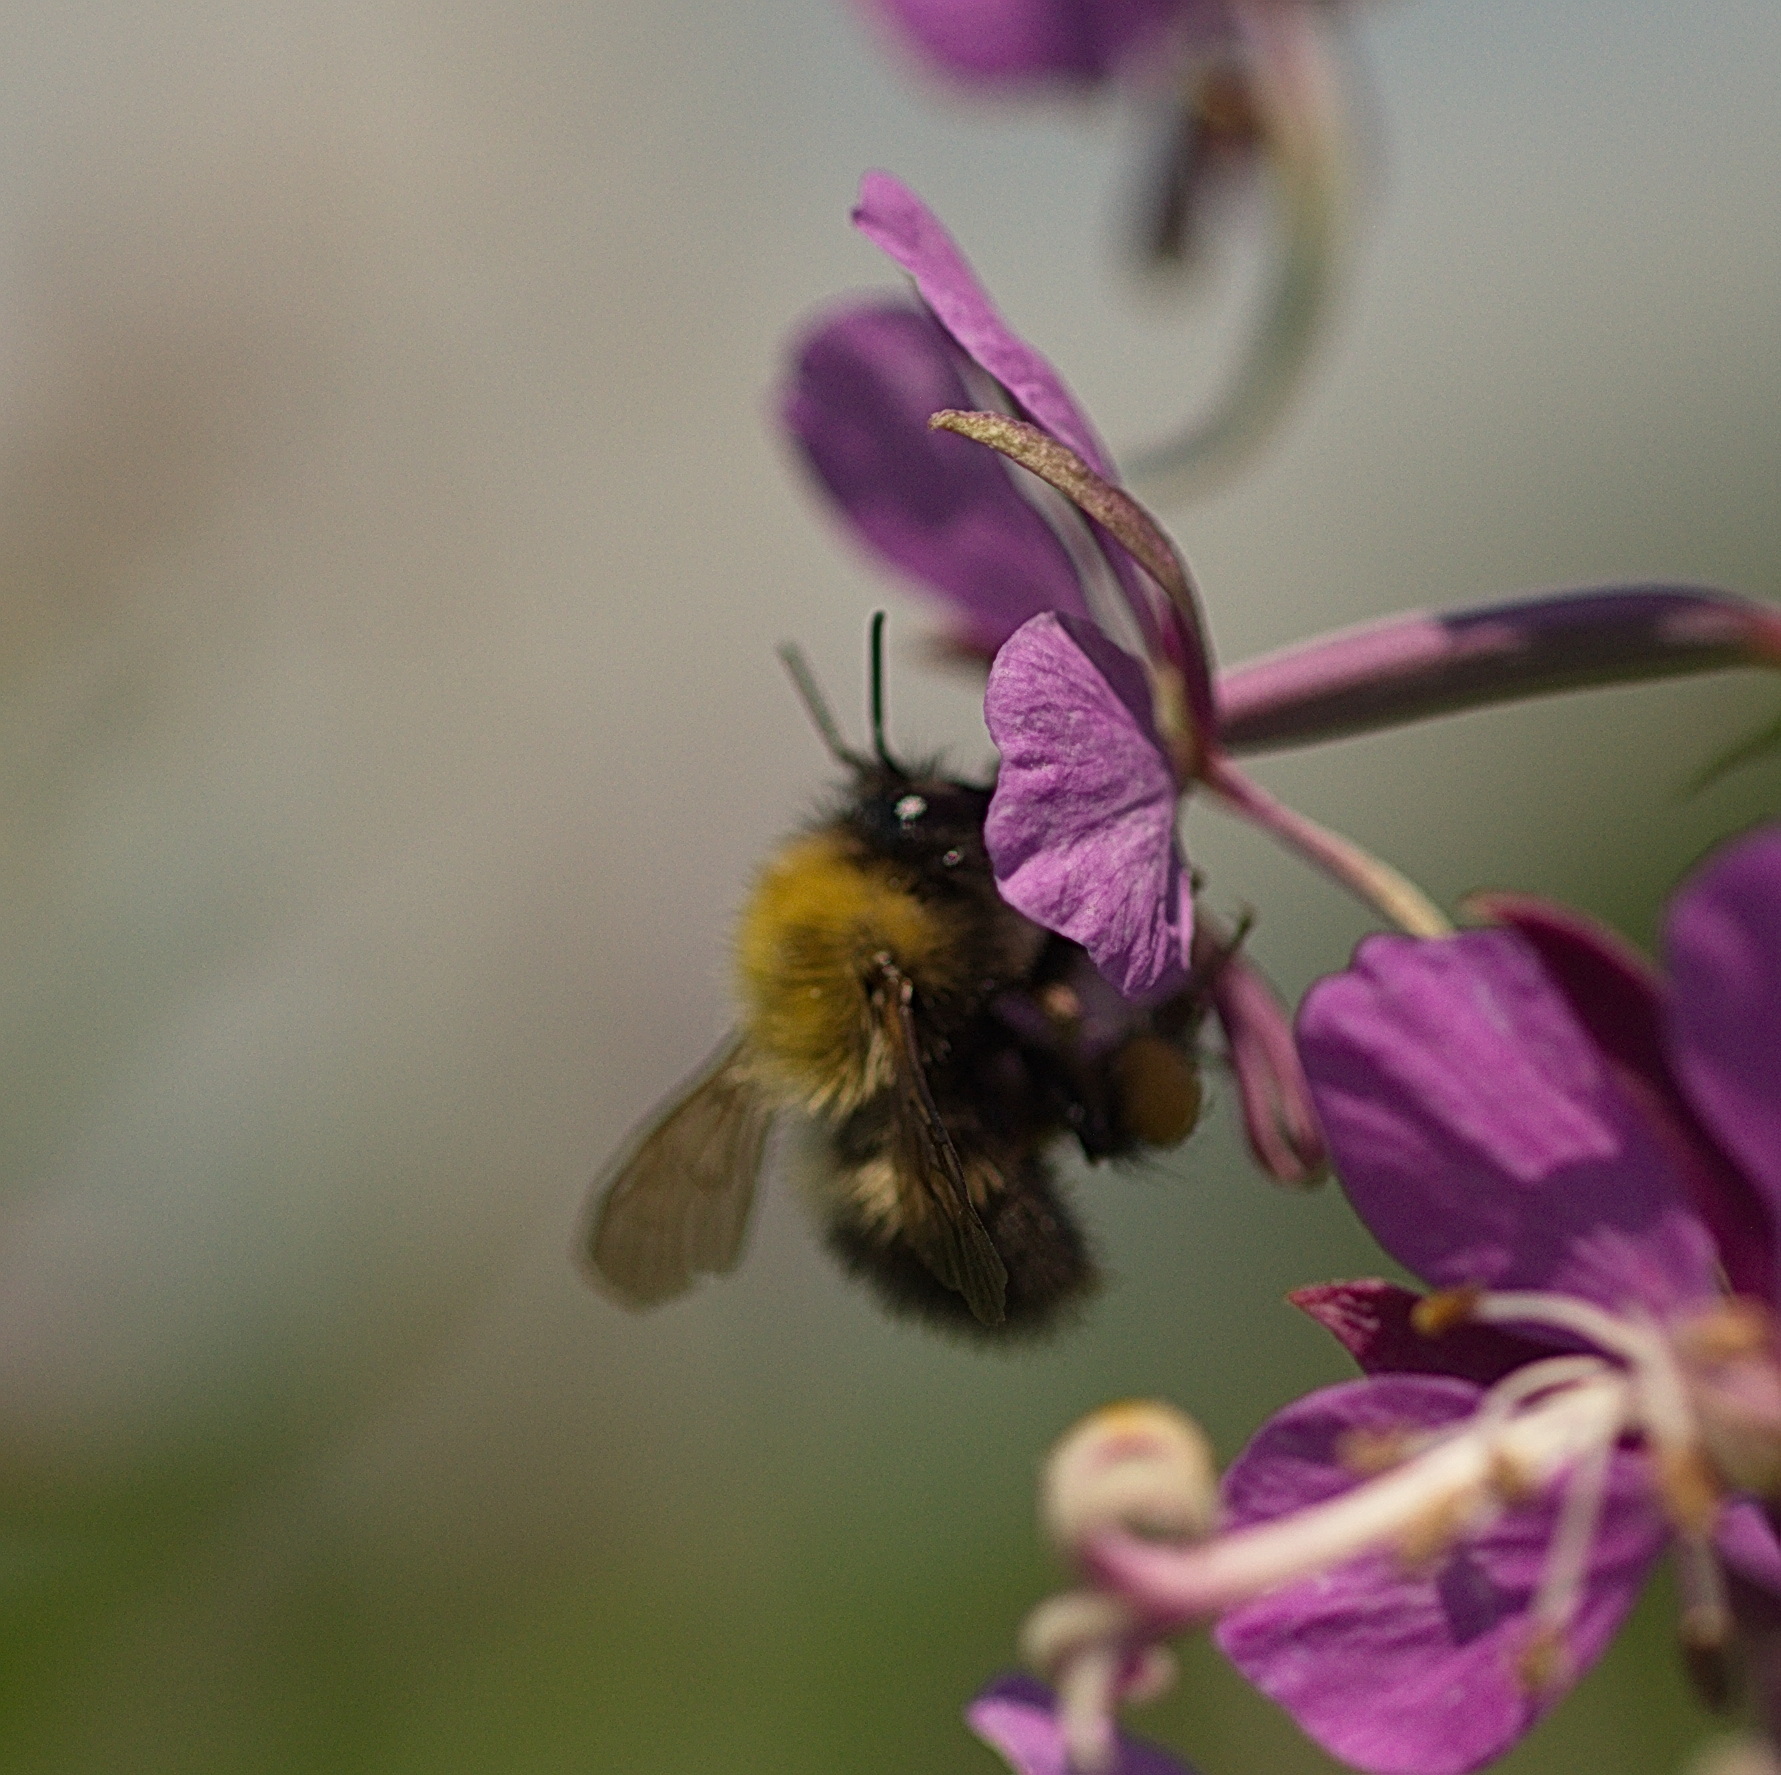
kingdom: Animalia
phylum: Arthropoda
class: Insecta
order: Hymenoptera
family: Apidae
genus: Bombus
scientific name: Bombus perplexus
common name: Confusing bumble bee
